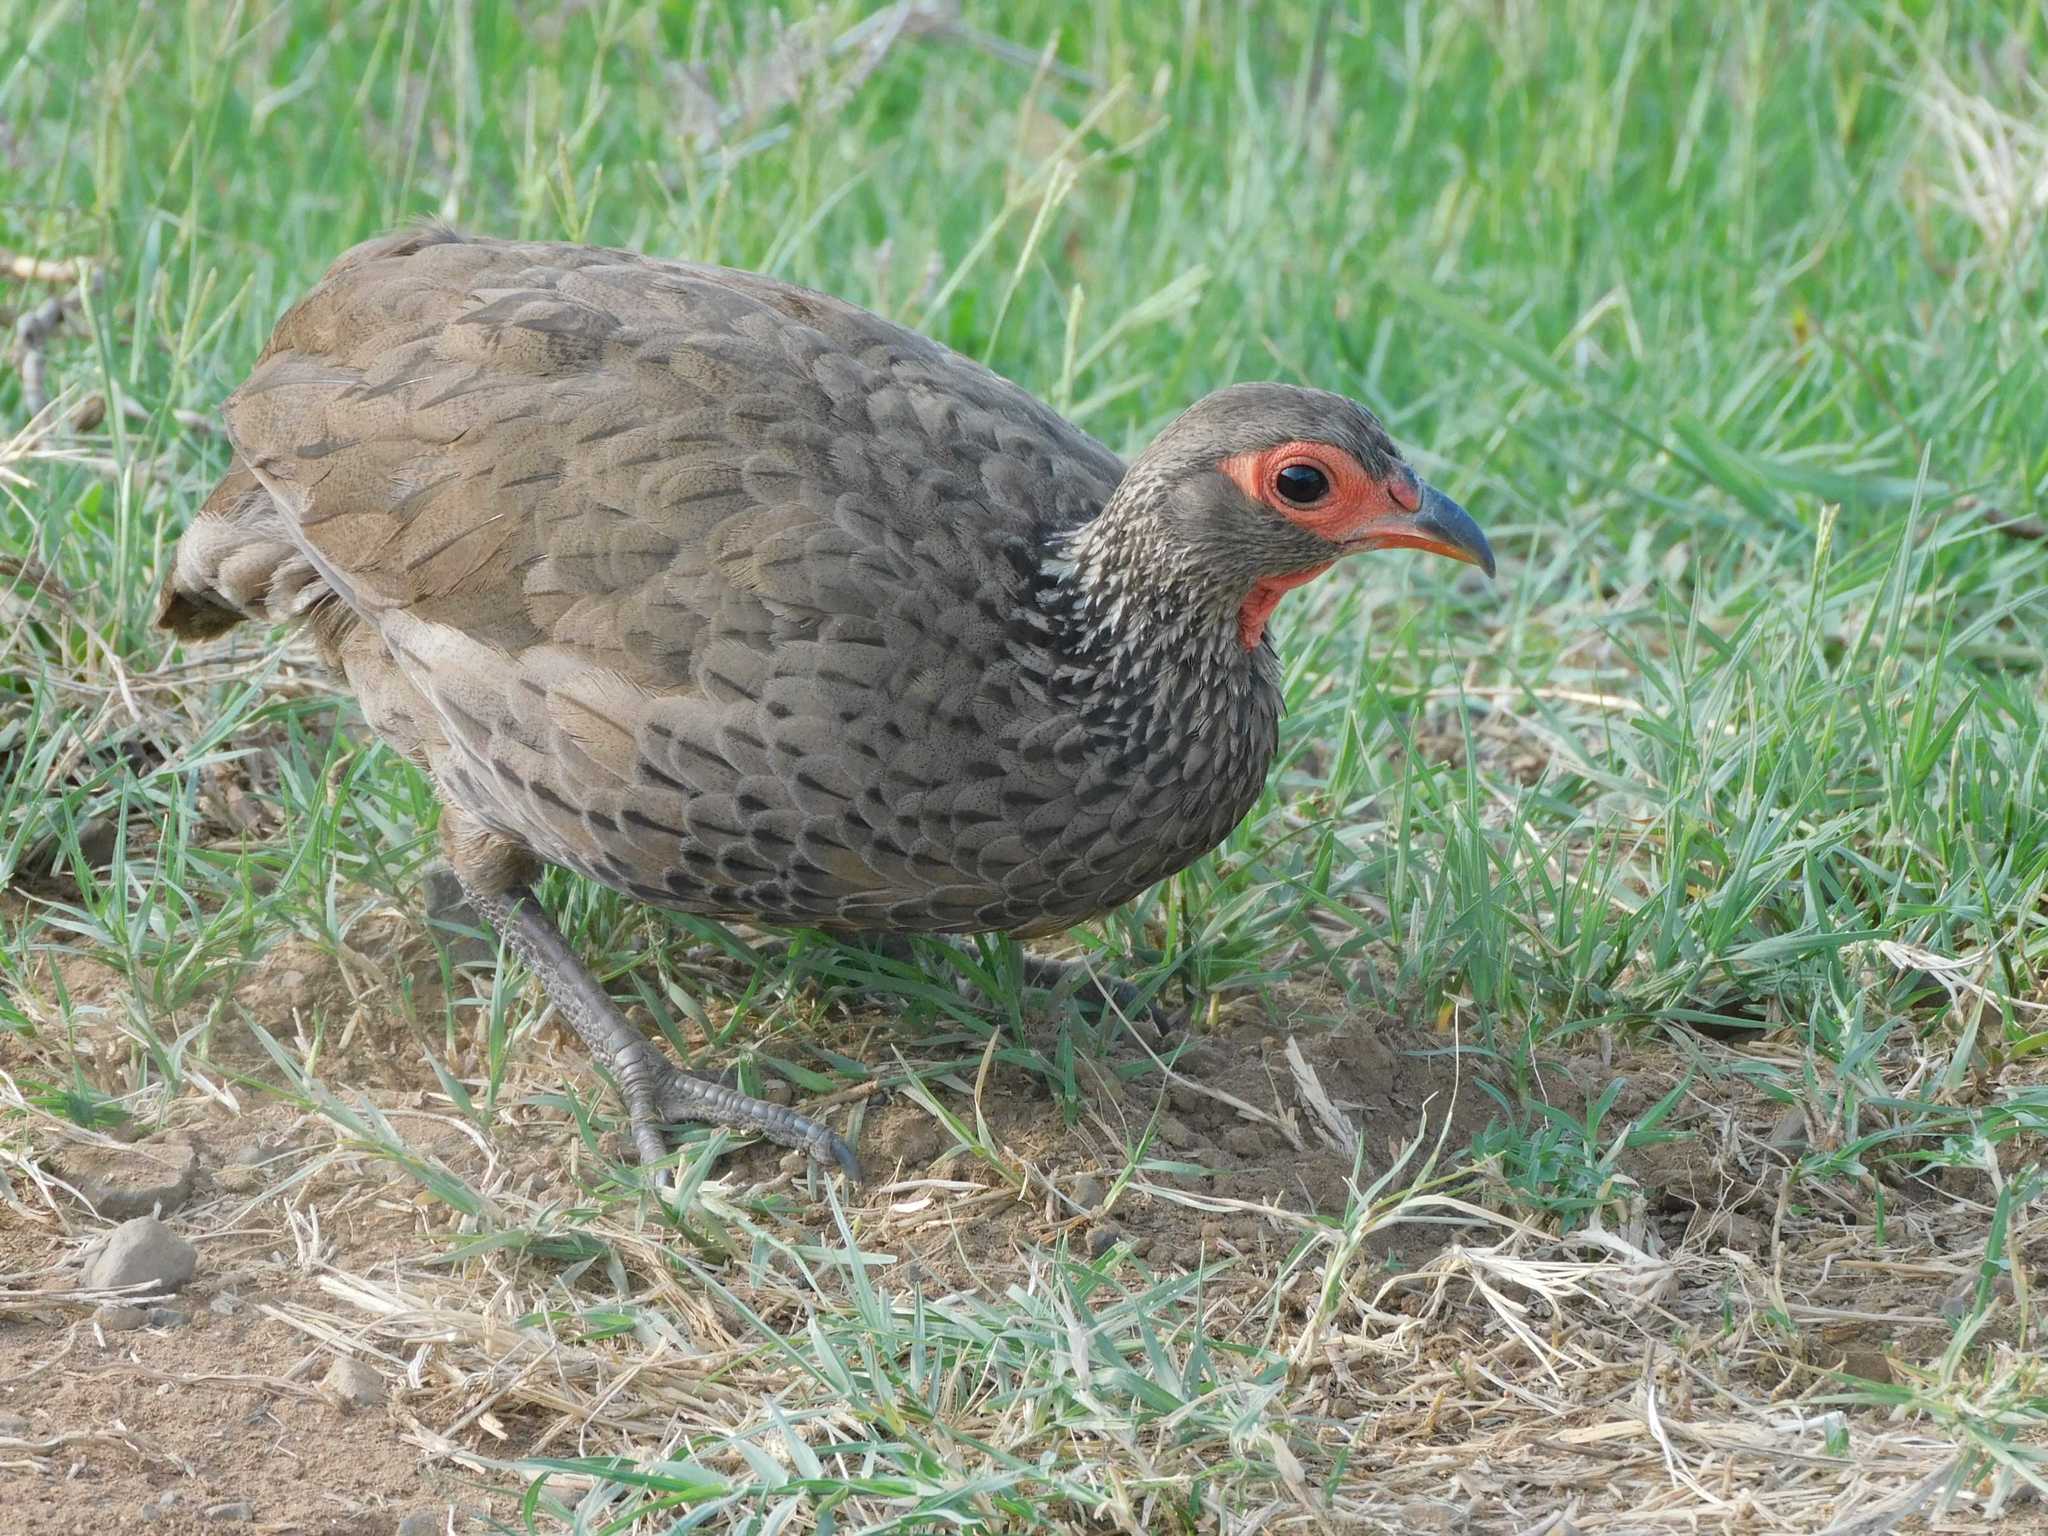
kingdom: Animalia
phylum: Chordata
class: Aves
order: Galliformes
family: Phasianidae
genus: Pternistis
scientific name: Pternistis swainsonii
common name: Swainson's spurfowl
